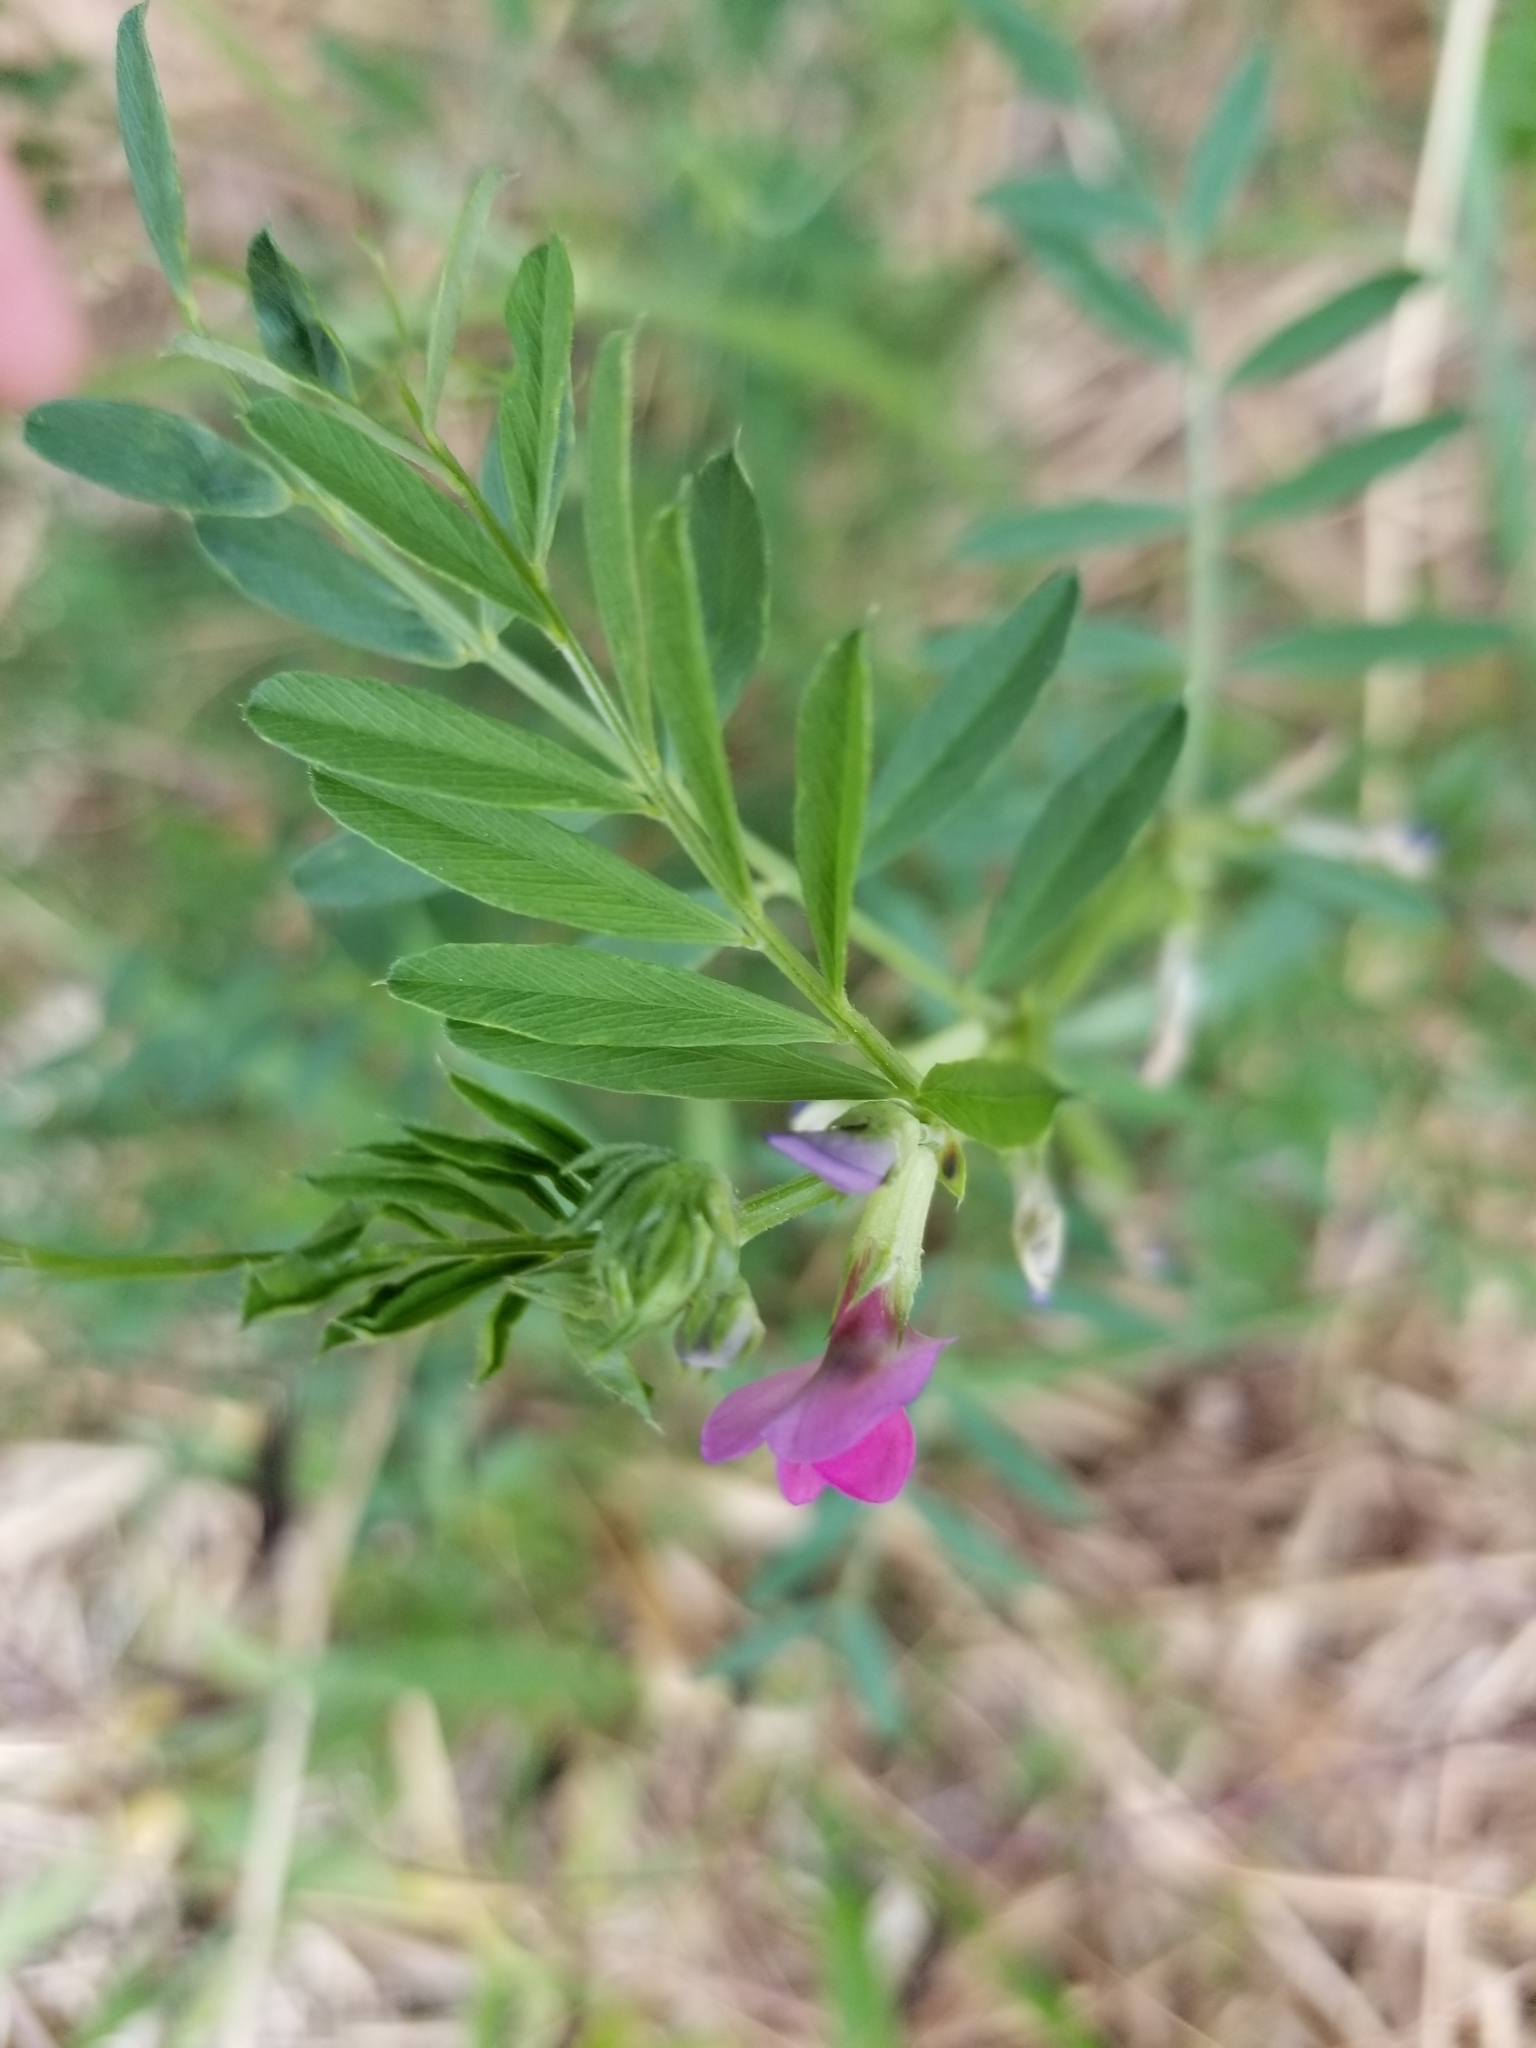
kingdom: Plantae
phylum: Tracheophyta
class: Magnoliopsida
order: Fabales
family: Fabaceae
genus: Vicia
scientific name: Vicia sativa
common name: Garden vetch
